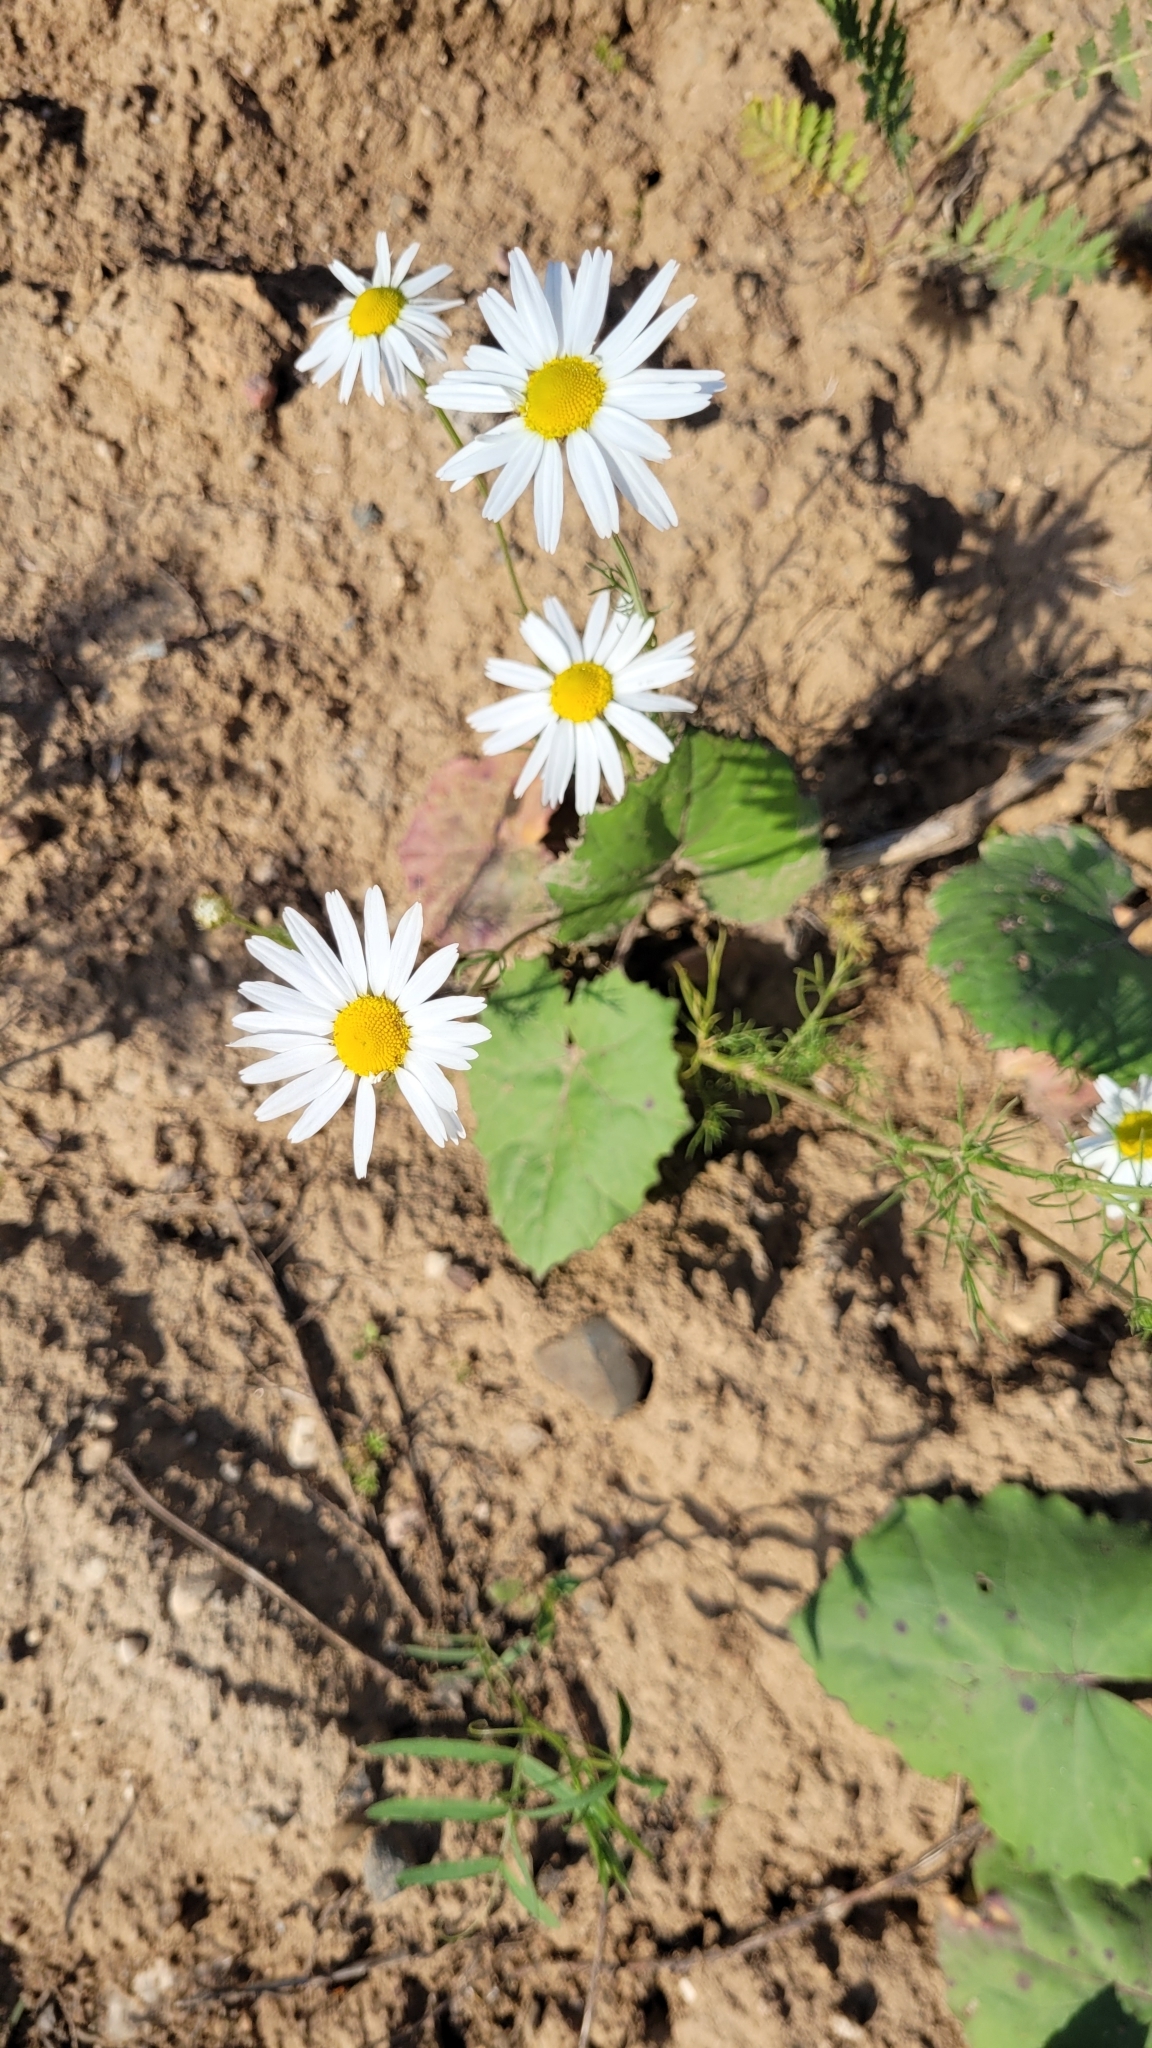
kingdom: Plantae
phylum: Tracheophyta
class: Magnoliopsida
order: Asterales
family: Asteraceae
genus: Tripleurospermum
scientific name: Tripleurospermum inodorum
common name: Scentless mayweed
